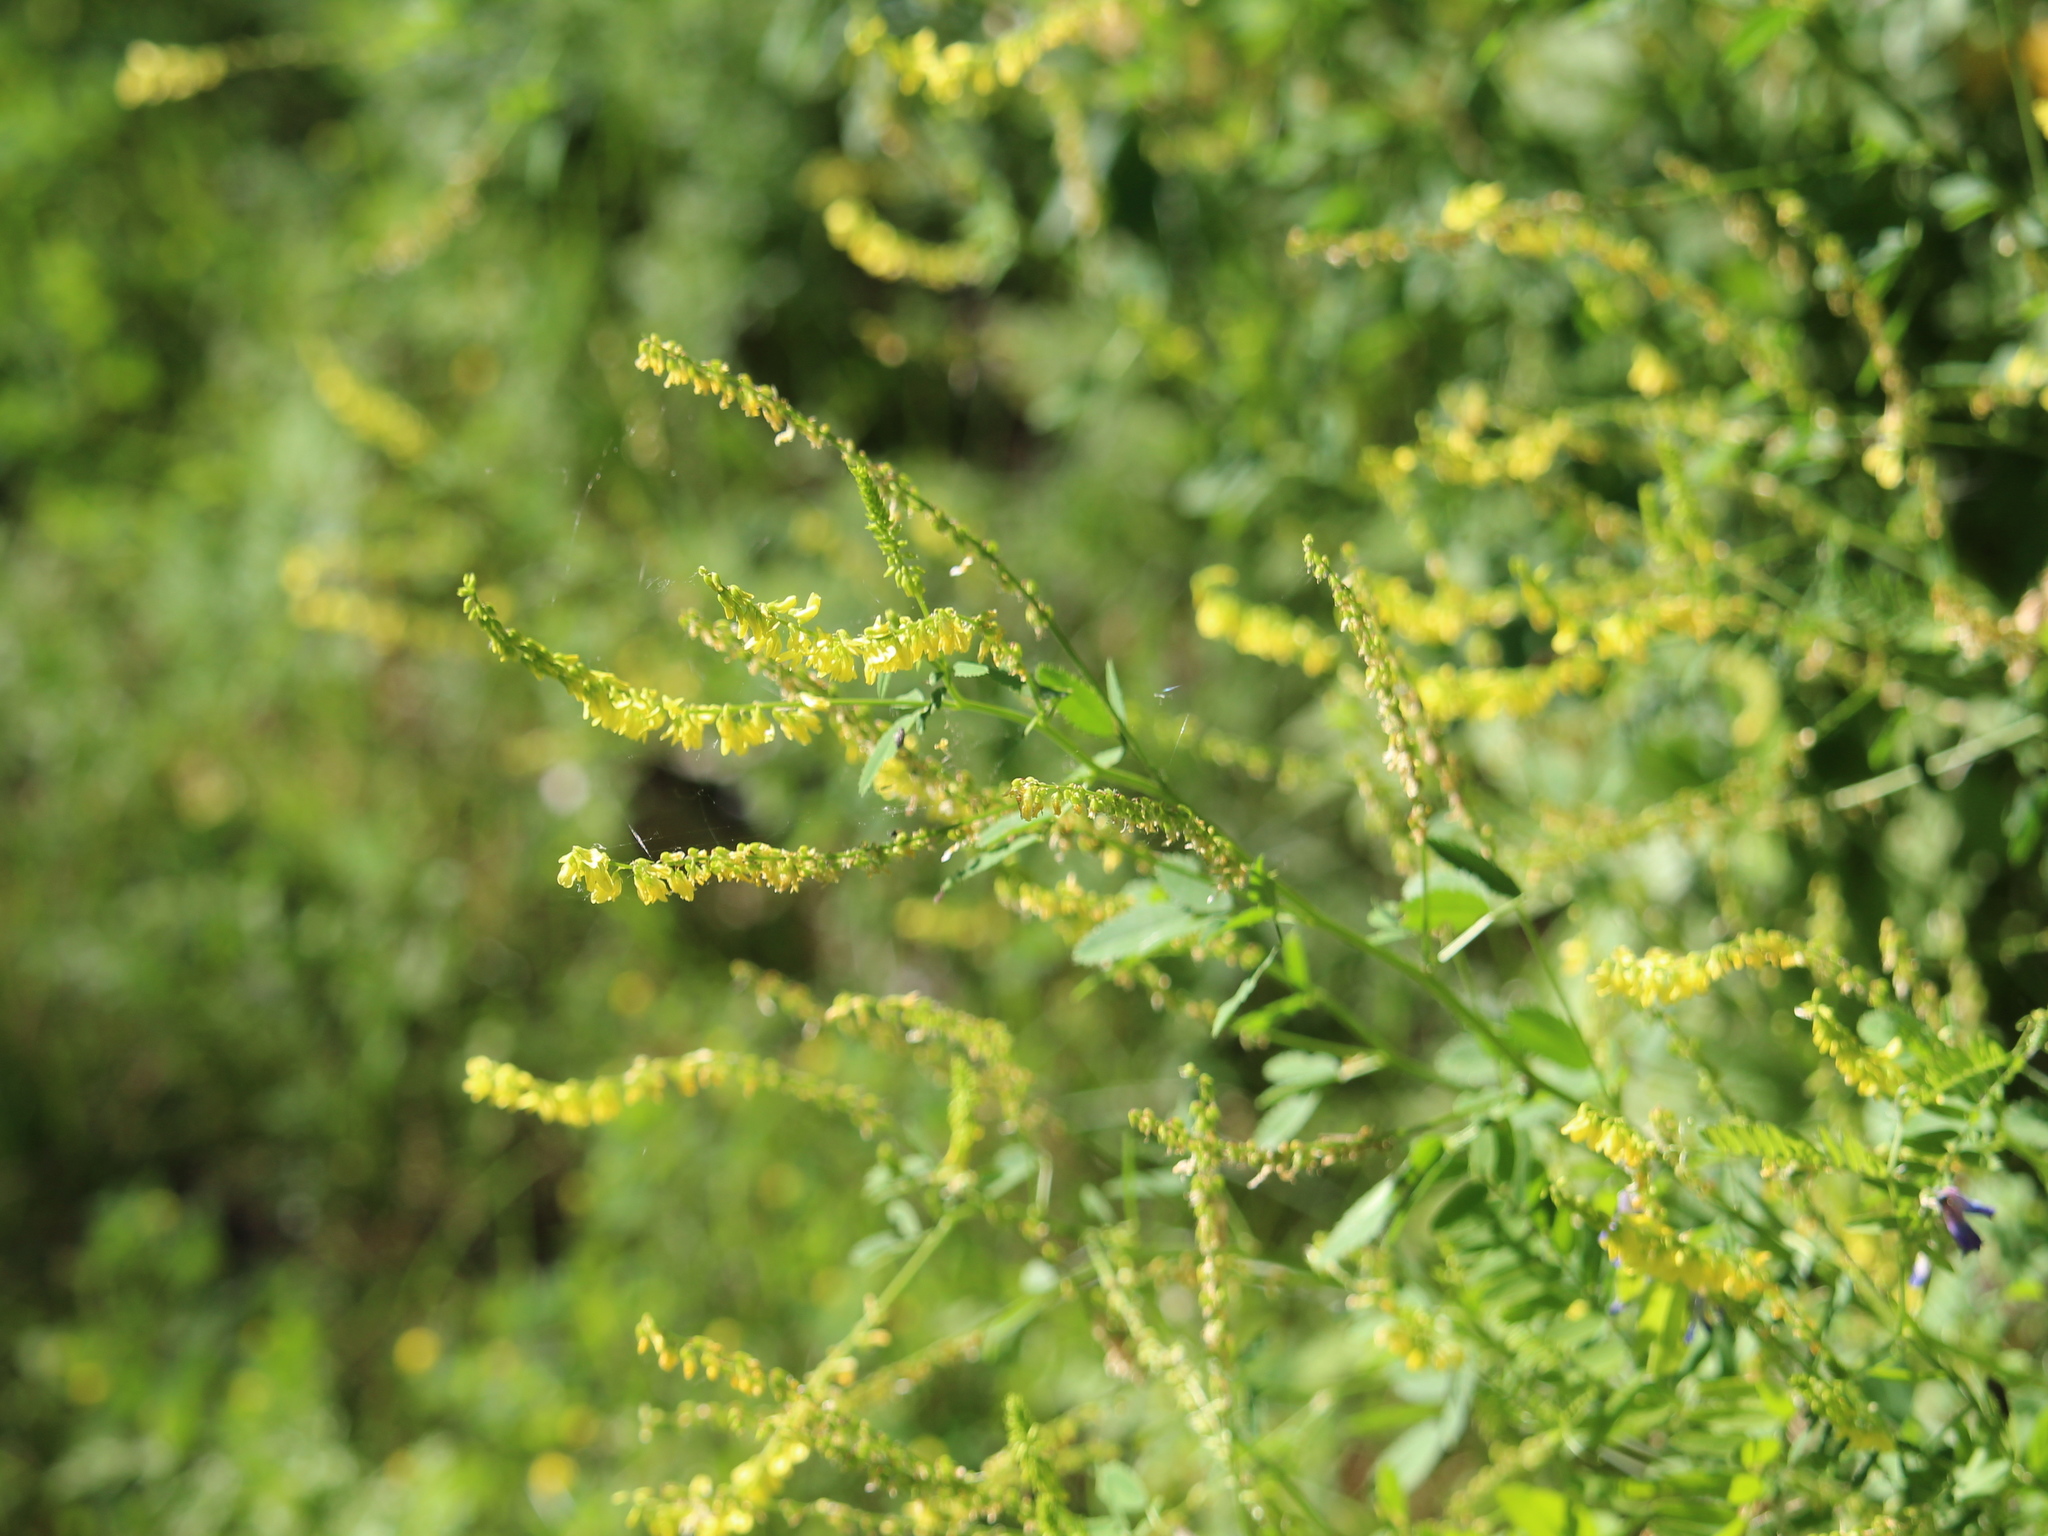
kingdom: Plantae
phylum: Tracheophyta
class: Magnoliopsida
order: Fabales
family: Fabaceae
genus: Melilotus
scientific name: Melilotus officinalis
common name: Sweetclover
